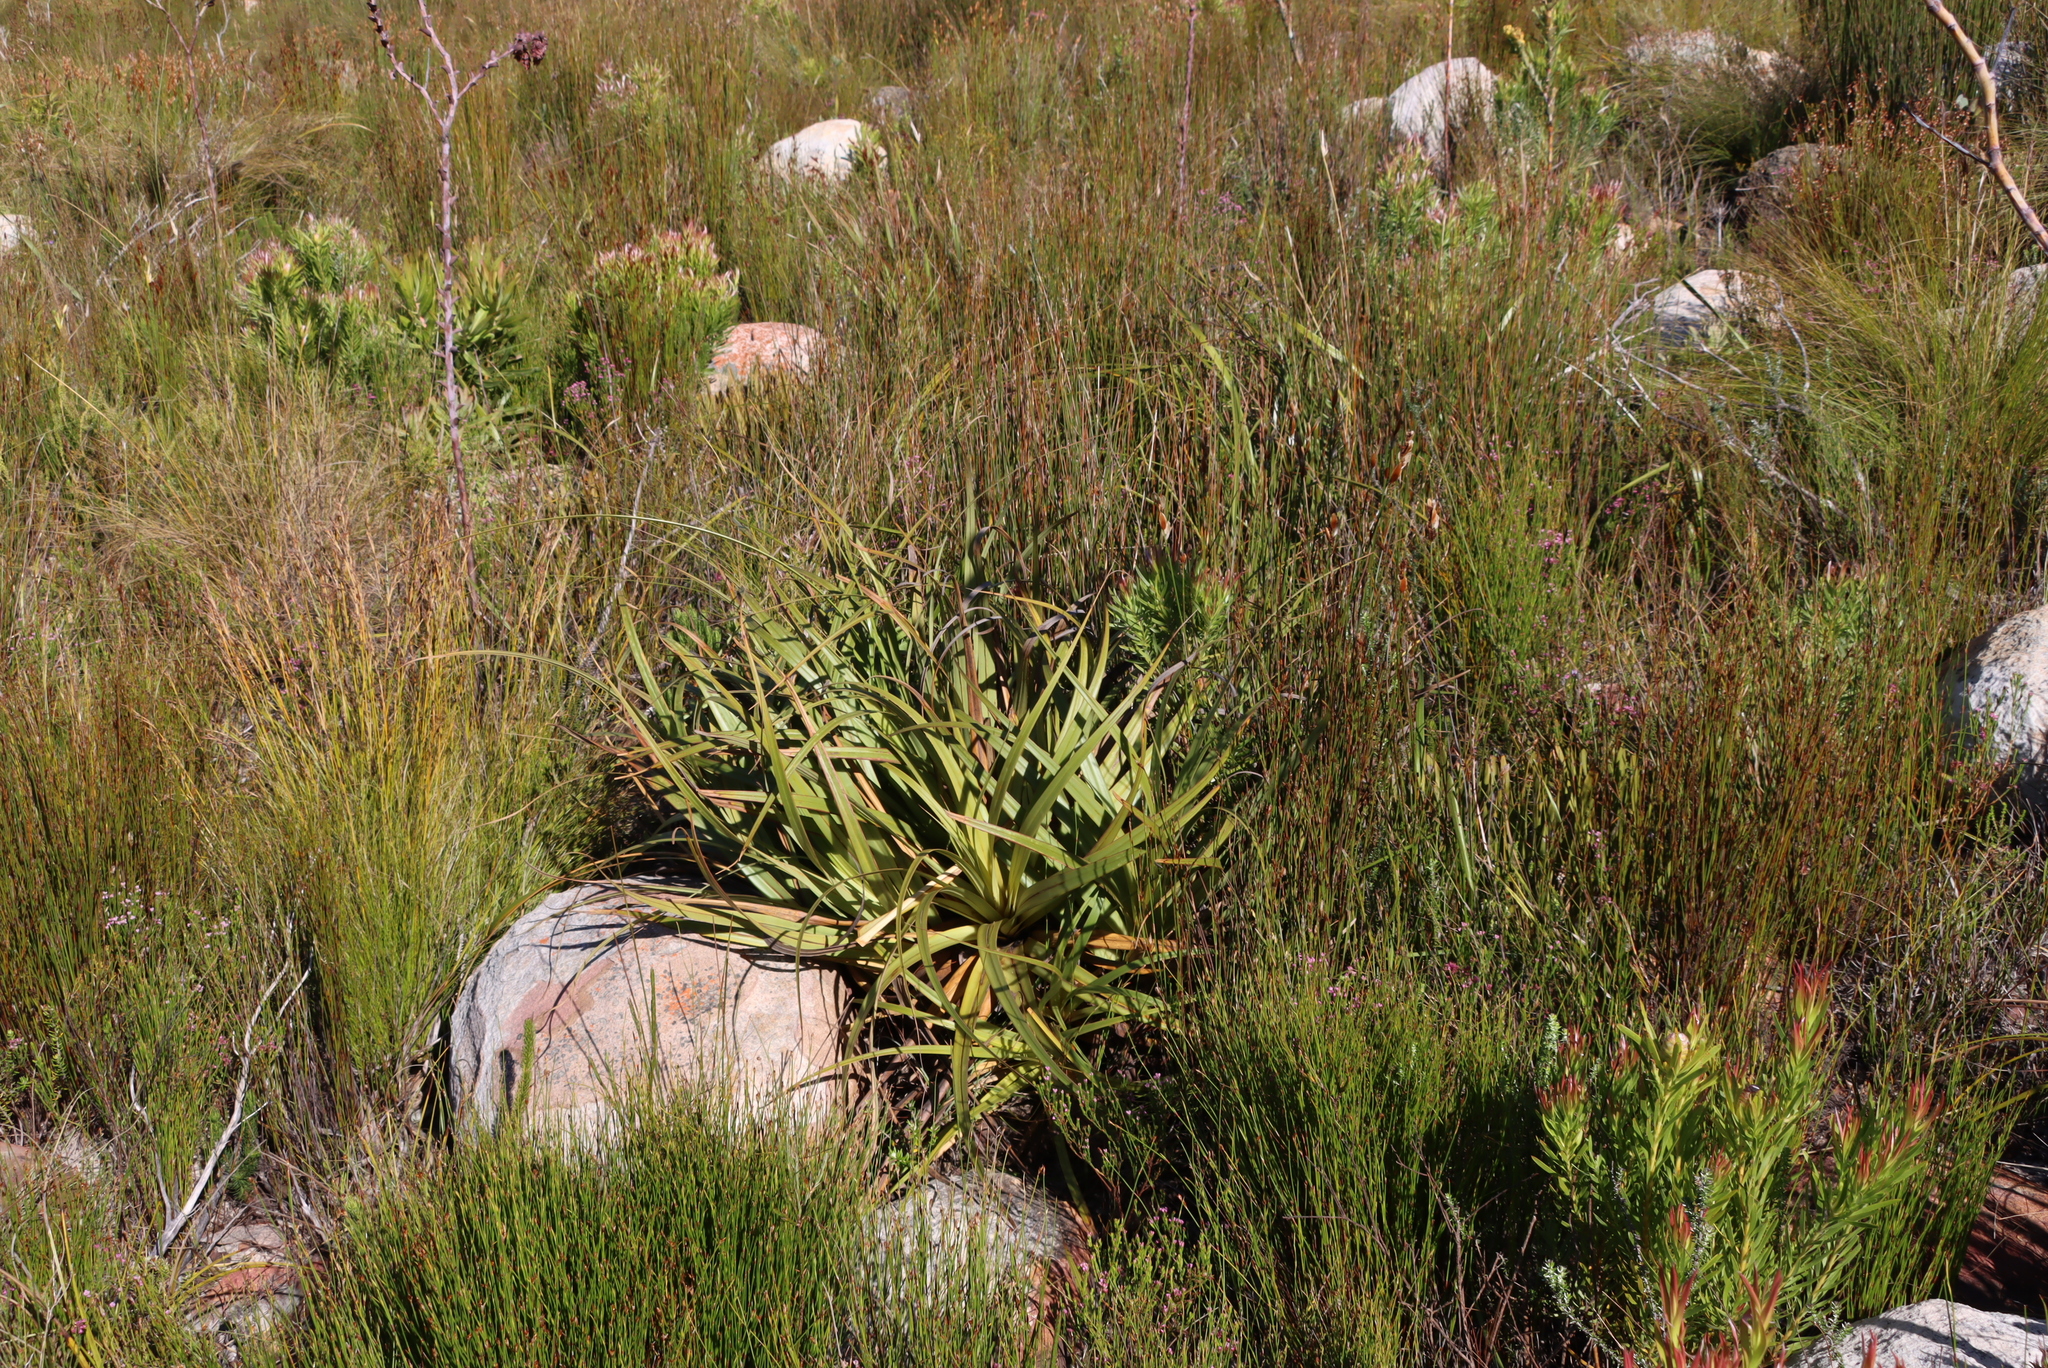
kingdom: Plantae
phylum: Tracheophyta
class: Liliopsida
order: Poales
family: Cyperaceae
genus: Tetraria
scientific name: Tetraria thermalis
